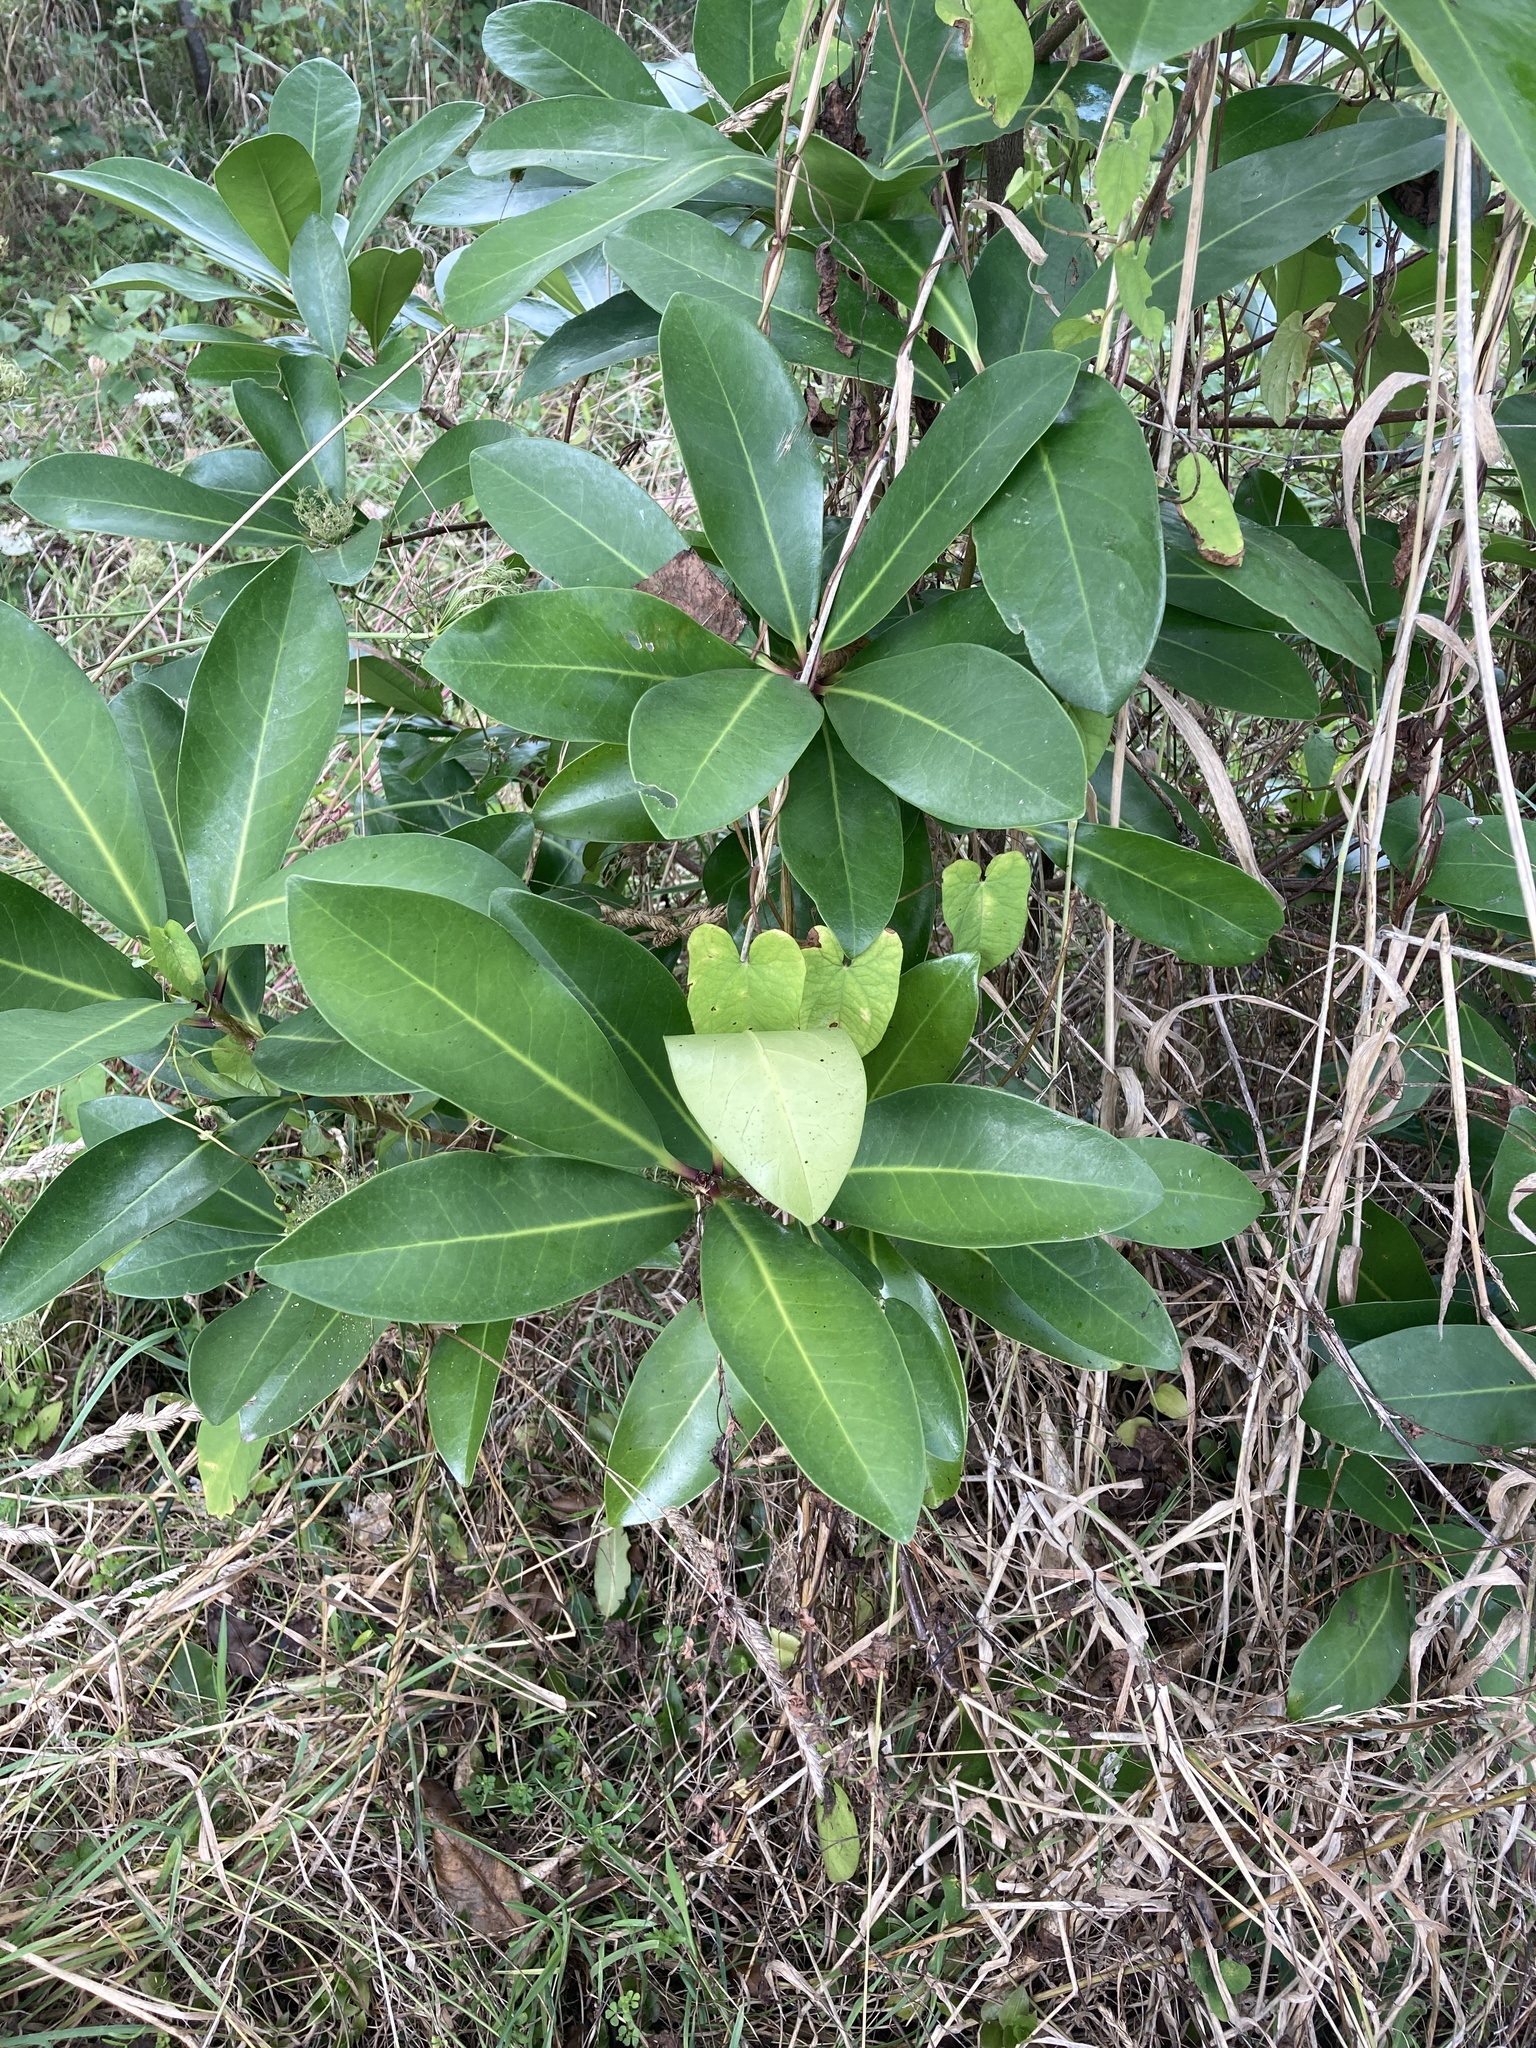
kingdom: Plantae
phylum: Tracheophyta
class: Magnoliopsida
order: Cucurbitales
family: Corynocarpaceae
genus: Corynocarpus
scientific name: Corynocarpus laevigatus
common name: New zealand laurel
